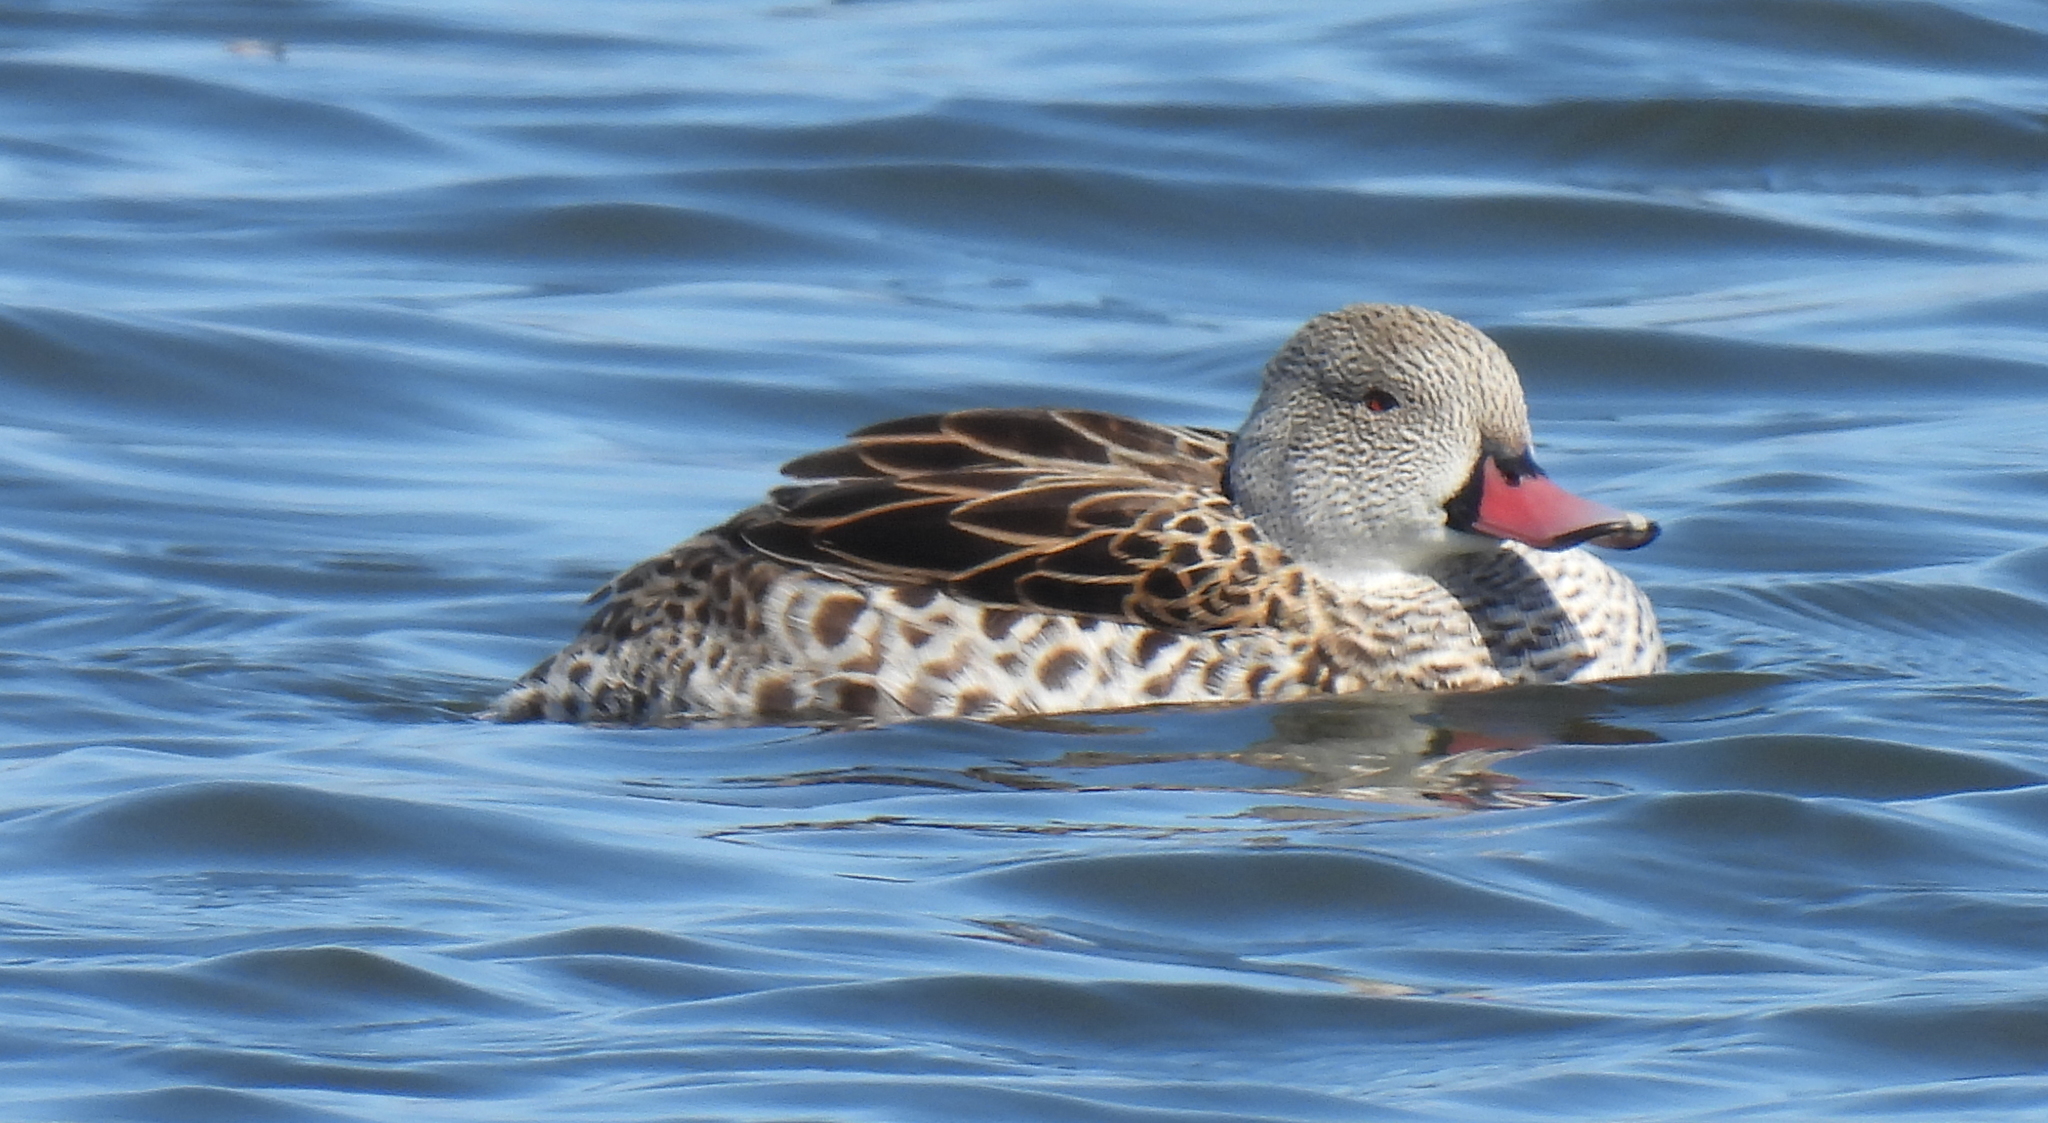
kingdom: Animalia
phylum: Chordata
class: Aves
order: Anseriformes
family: Anatidae
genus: Anas
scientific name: Anas capensis
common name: Cape teal
